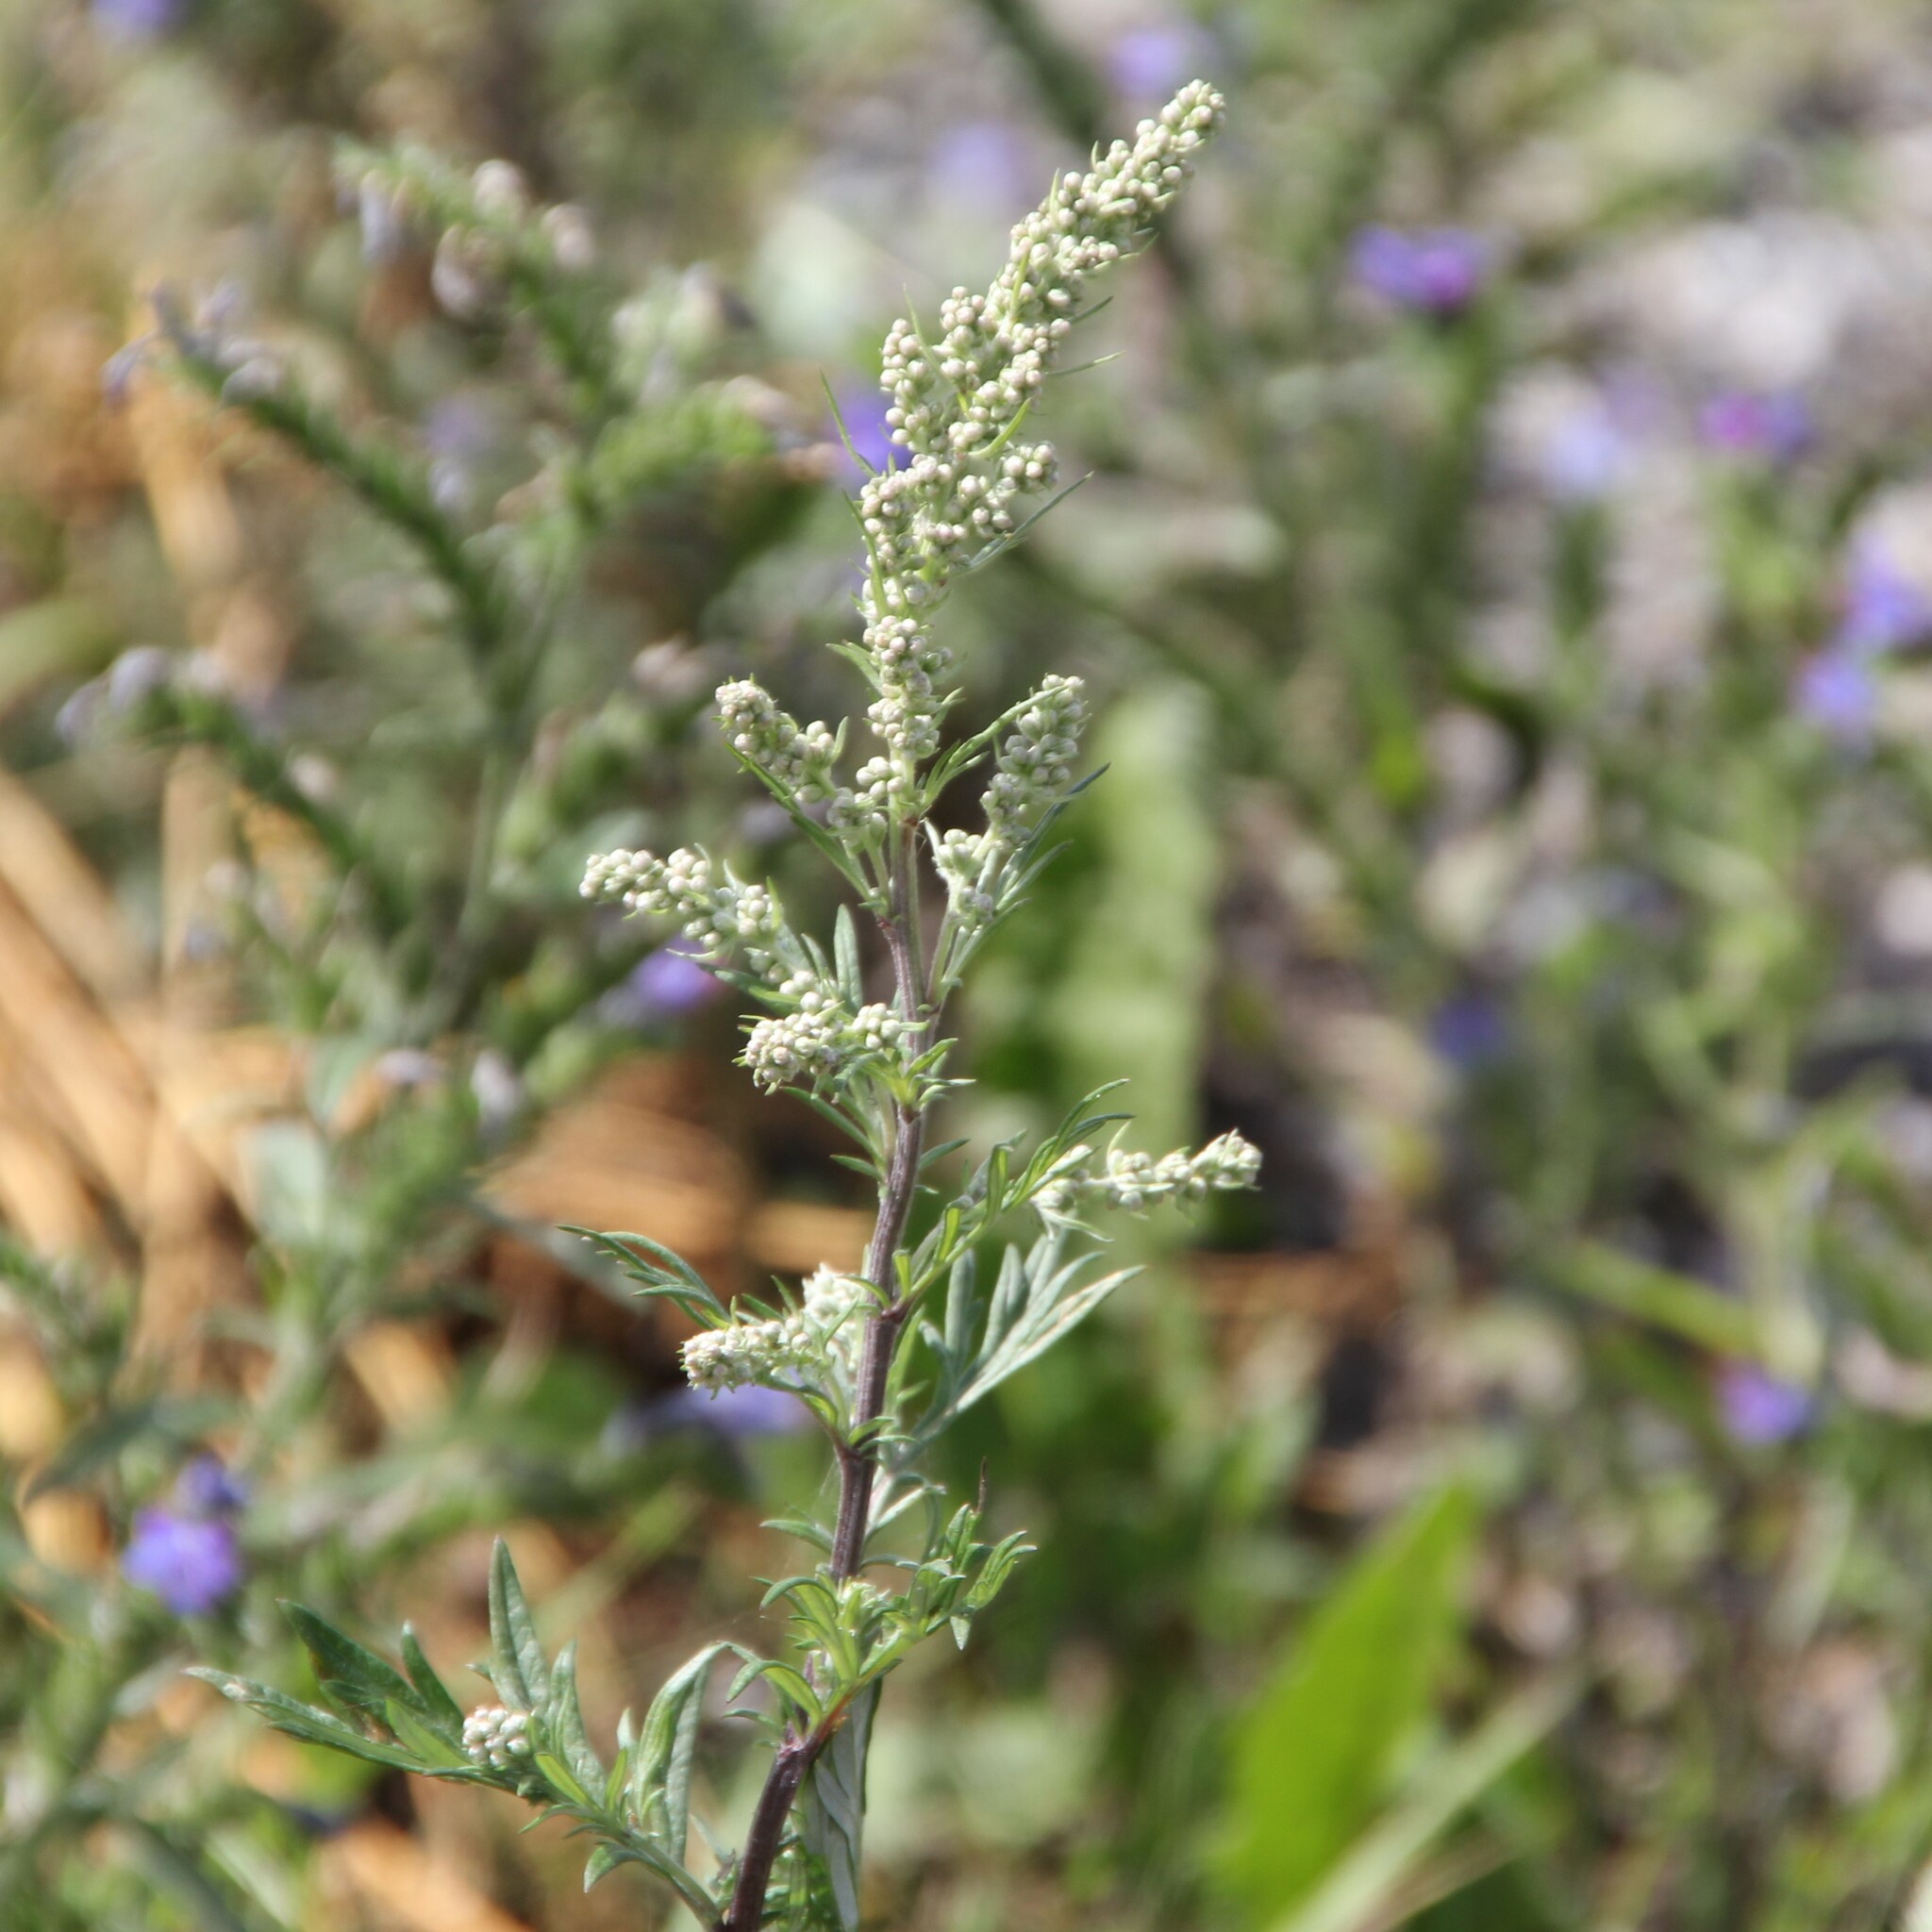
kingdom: Plantae
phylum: Tracheophyta
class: Magnoliopsida
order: Asterales
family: Asteraceae
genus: Artemisia
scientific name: Artemisia vulgaris
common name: Mugwort
